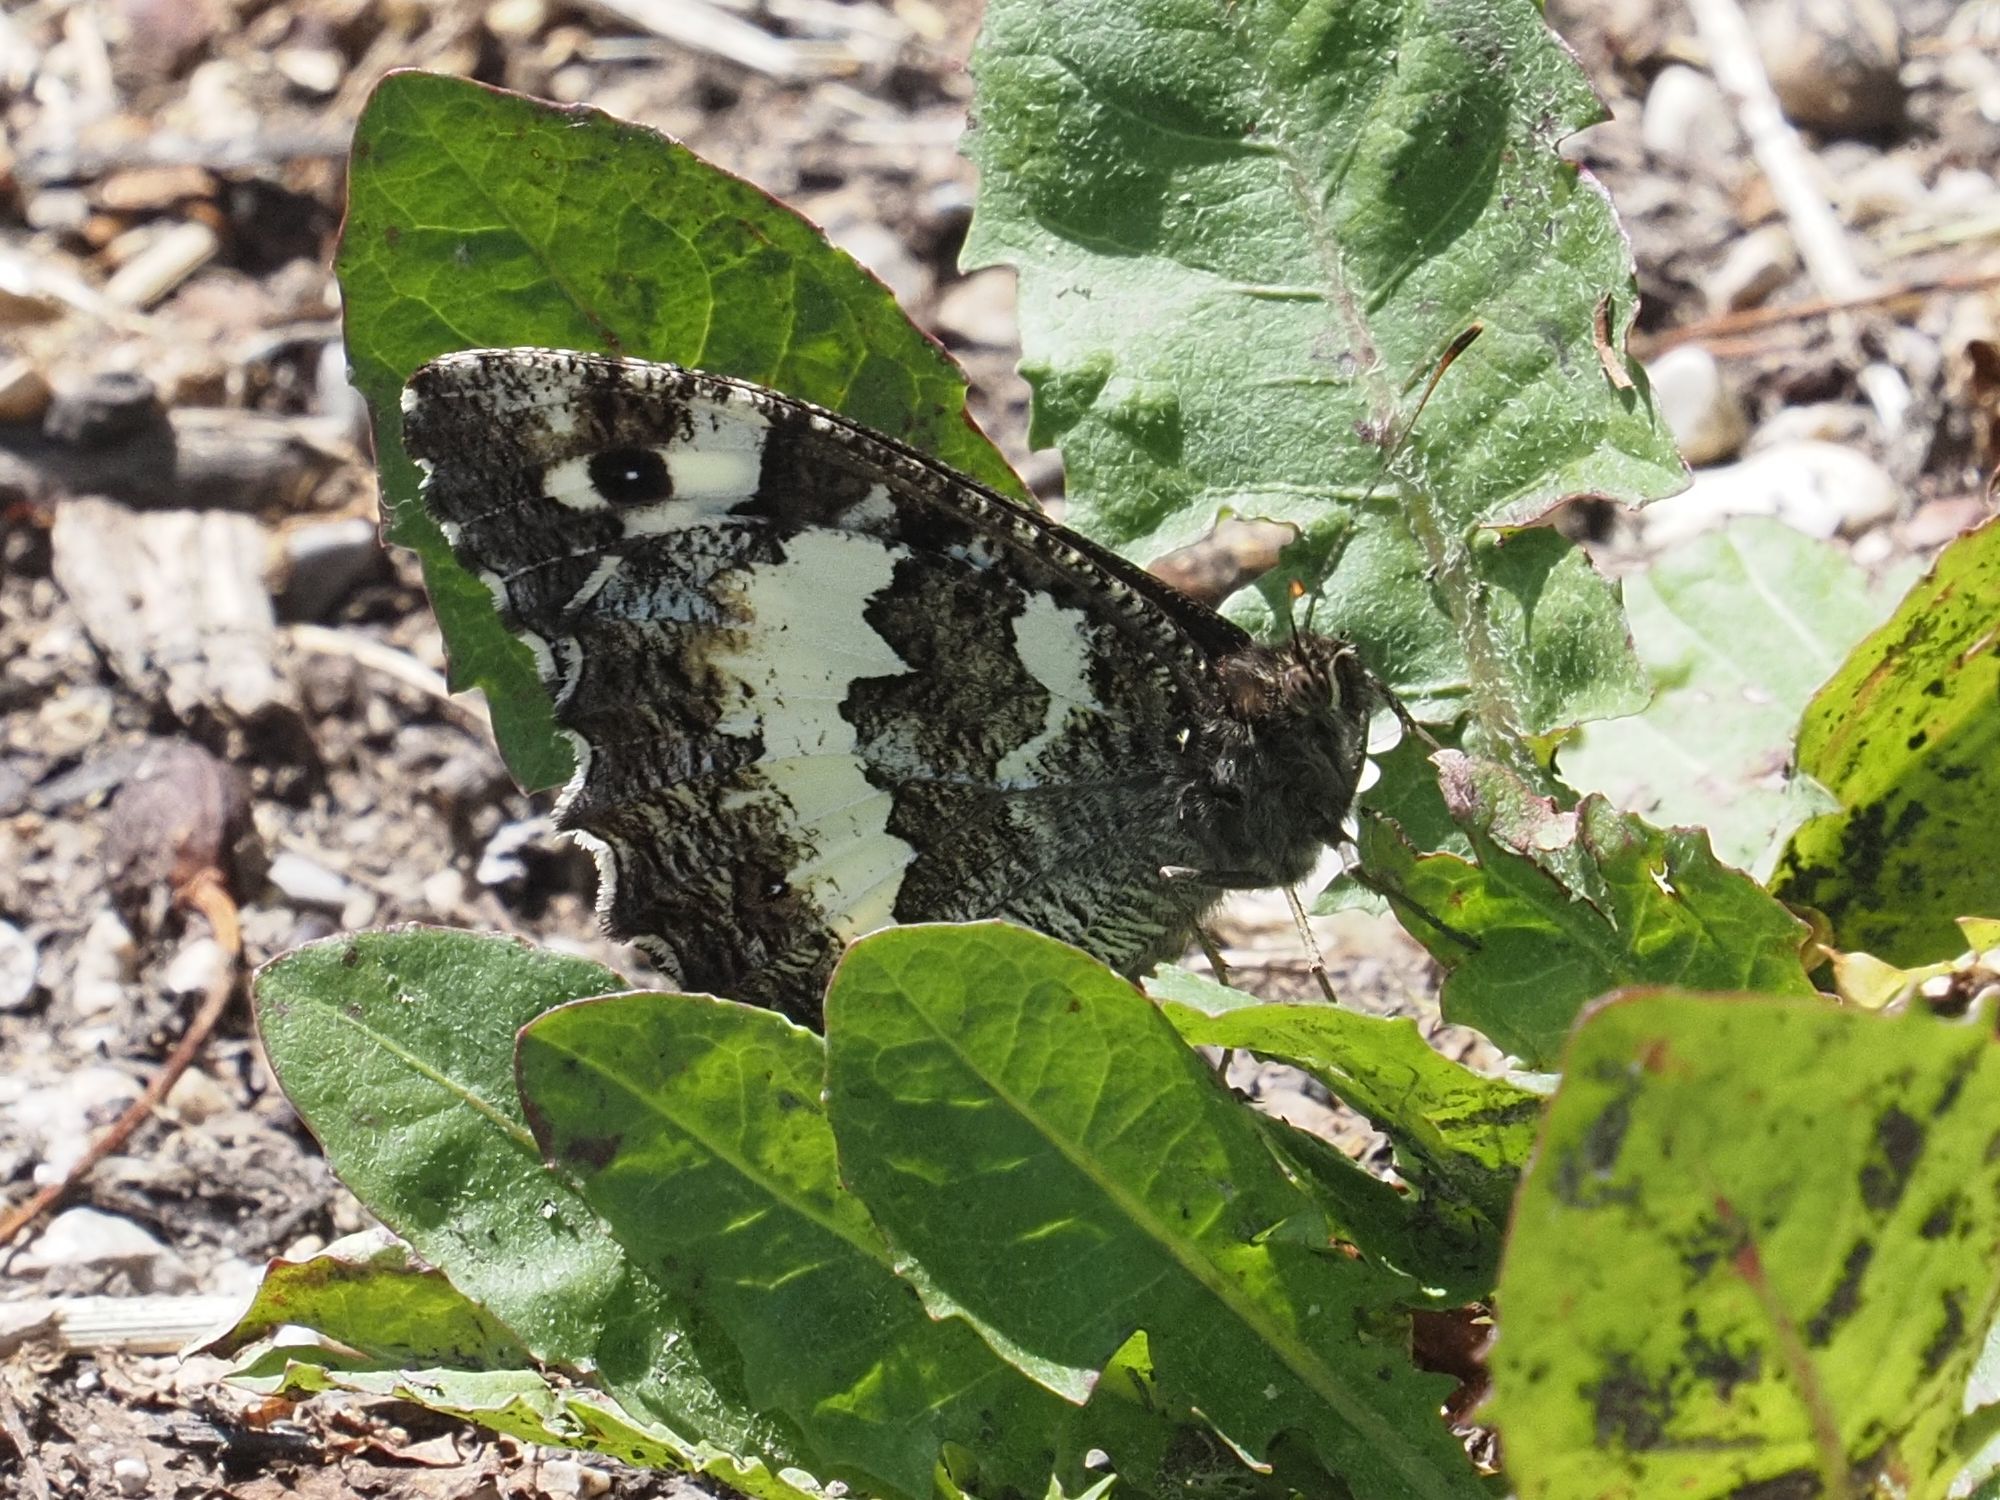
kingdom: Animalia
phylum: Arthropoda
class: Insecta
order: Lepidoptera
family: Lycaenidae
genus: Loweia
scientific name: Loweia tityrus
